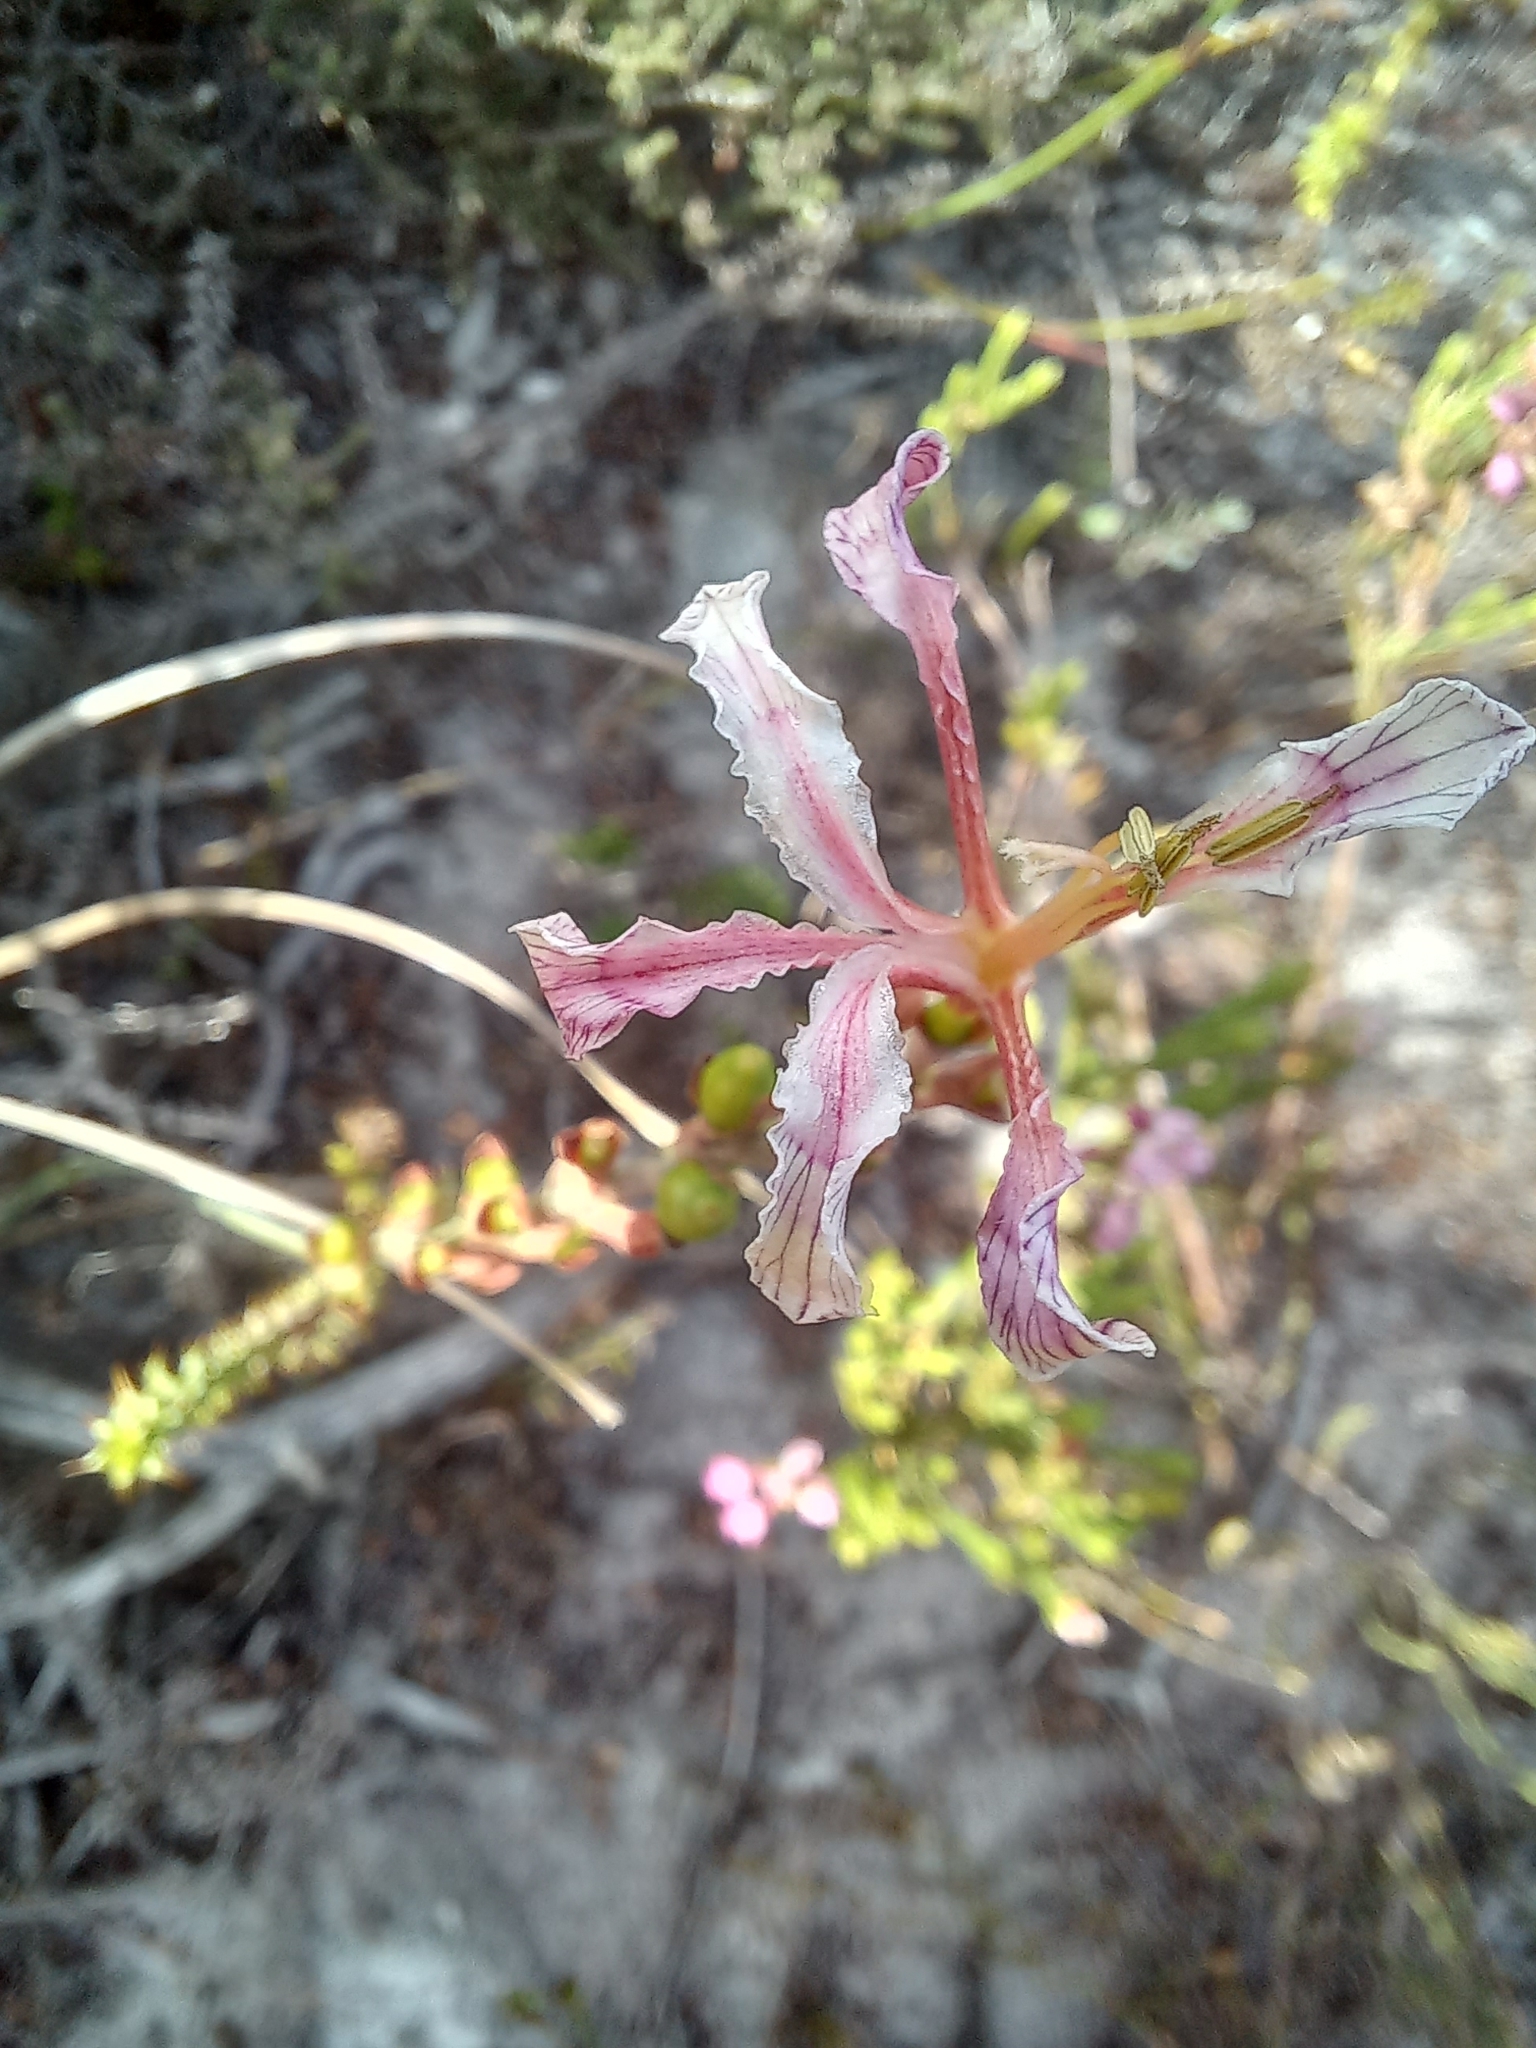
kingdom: Plantae
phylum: Tracheophyta
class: Liliopsida
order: Asparagales
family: Iridaceae
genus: Tritoniopsis
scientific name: Tritoniopsis dodii
